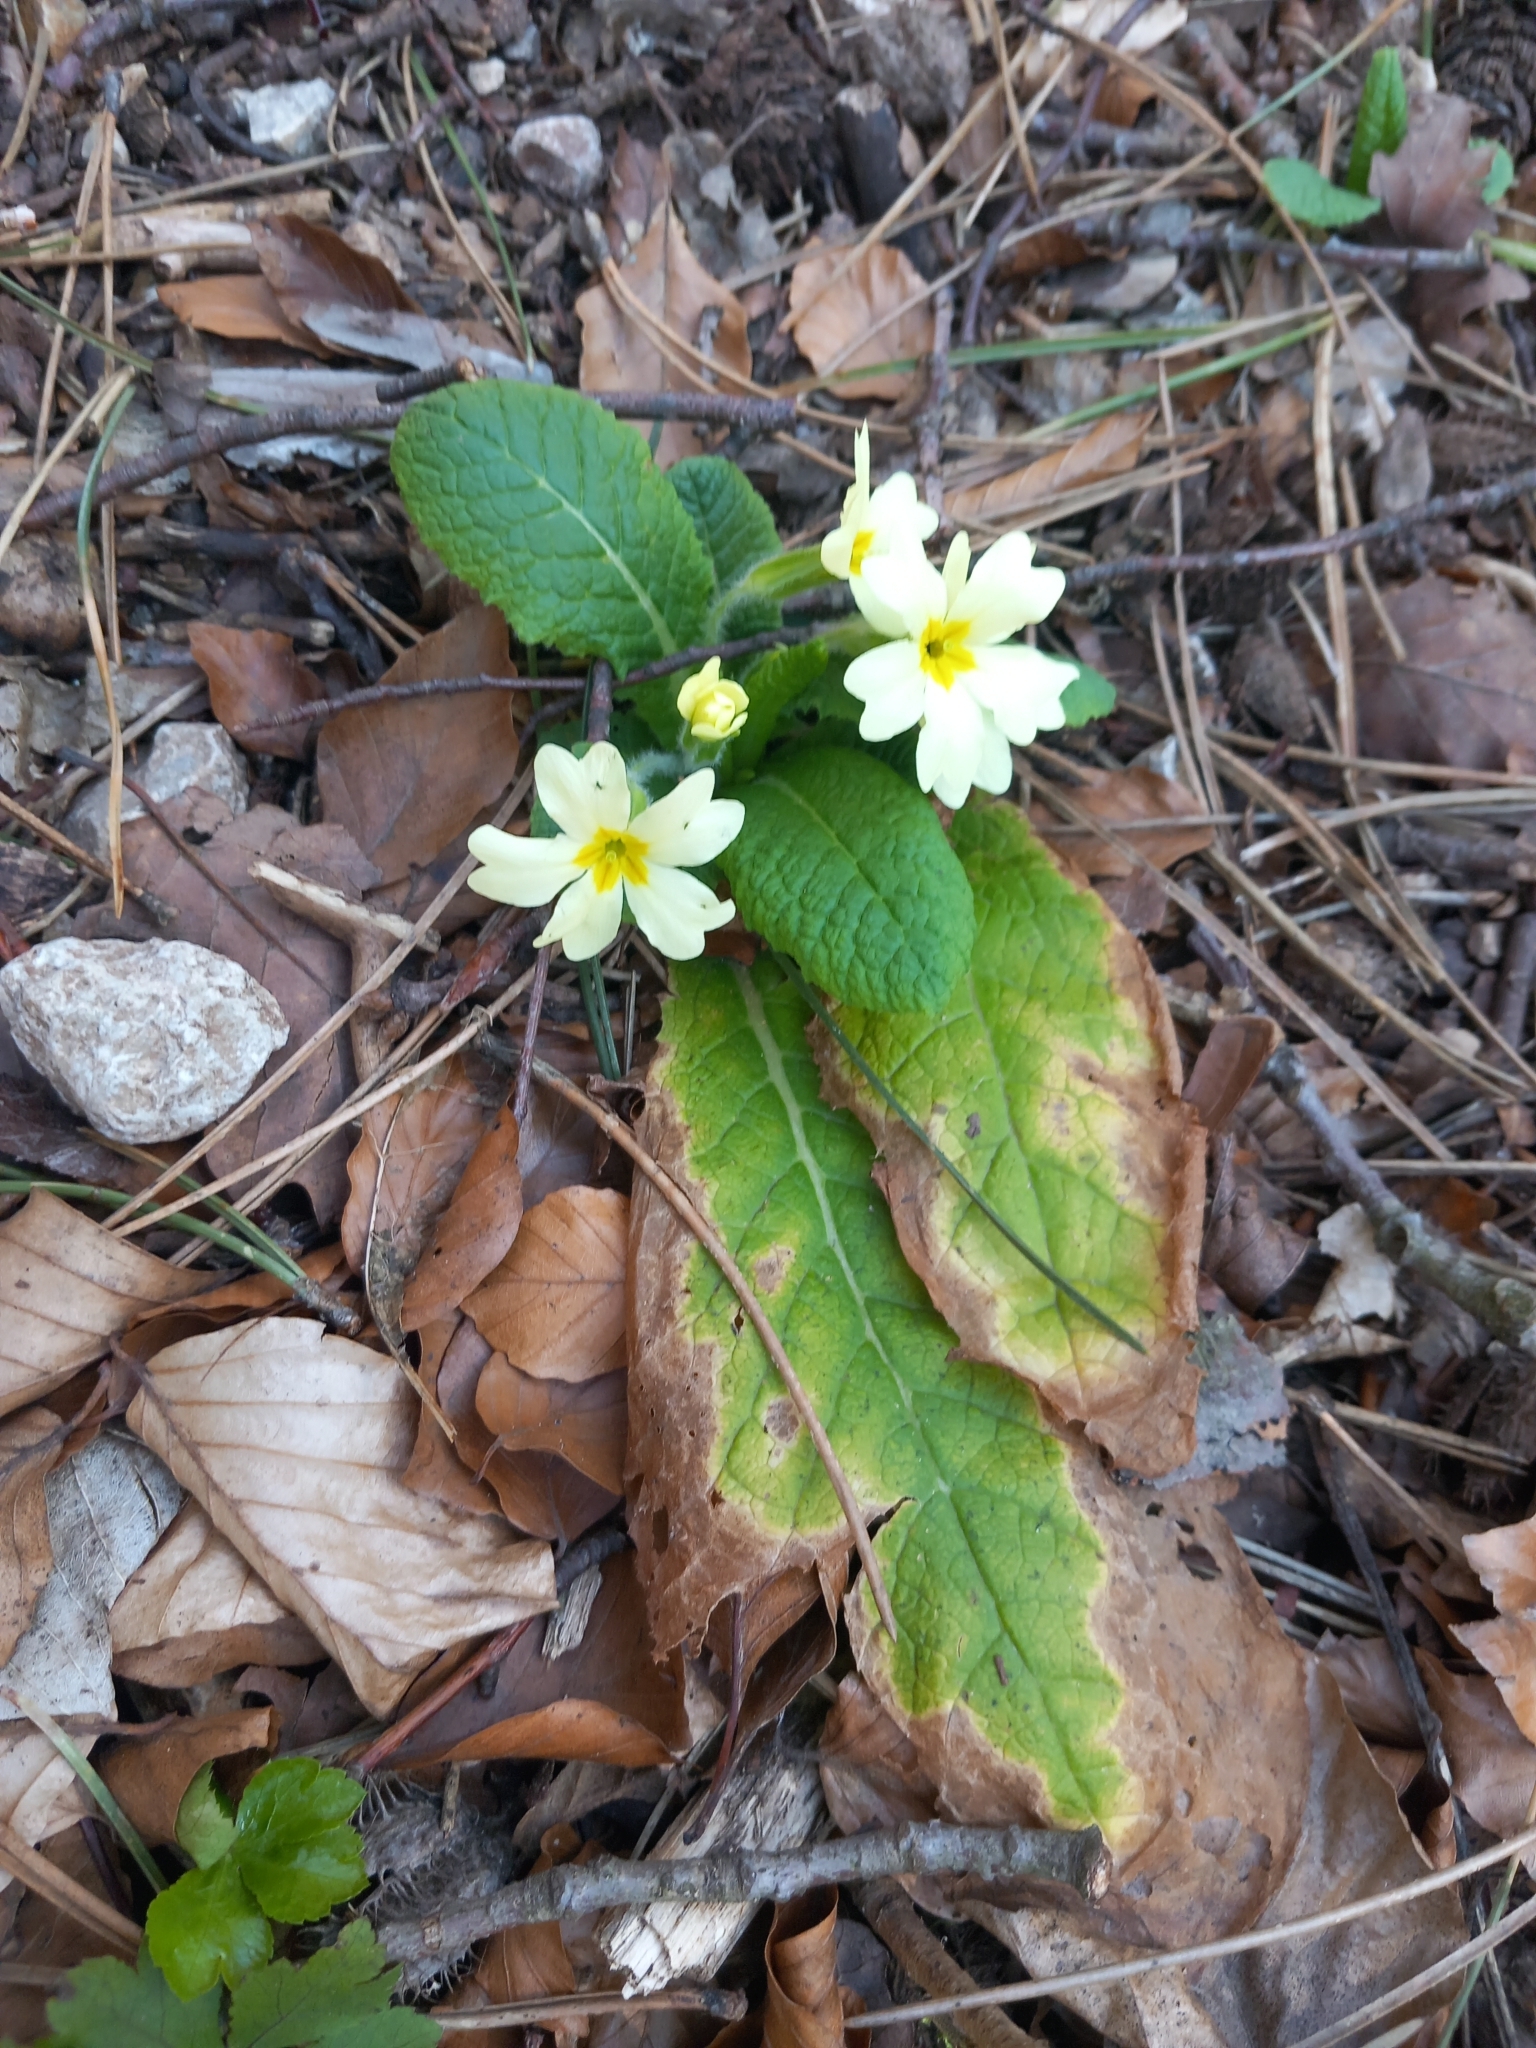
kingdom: Plantae
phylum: Tracheophyta
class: Magnoliopsida
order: Ericales
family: Primulaceae
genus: Primula
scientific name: Primula vulgaris
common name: Primrose
